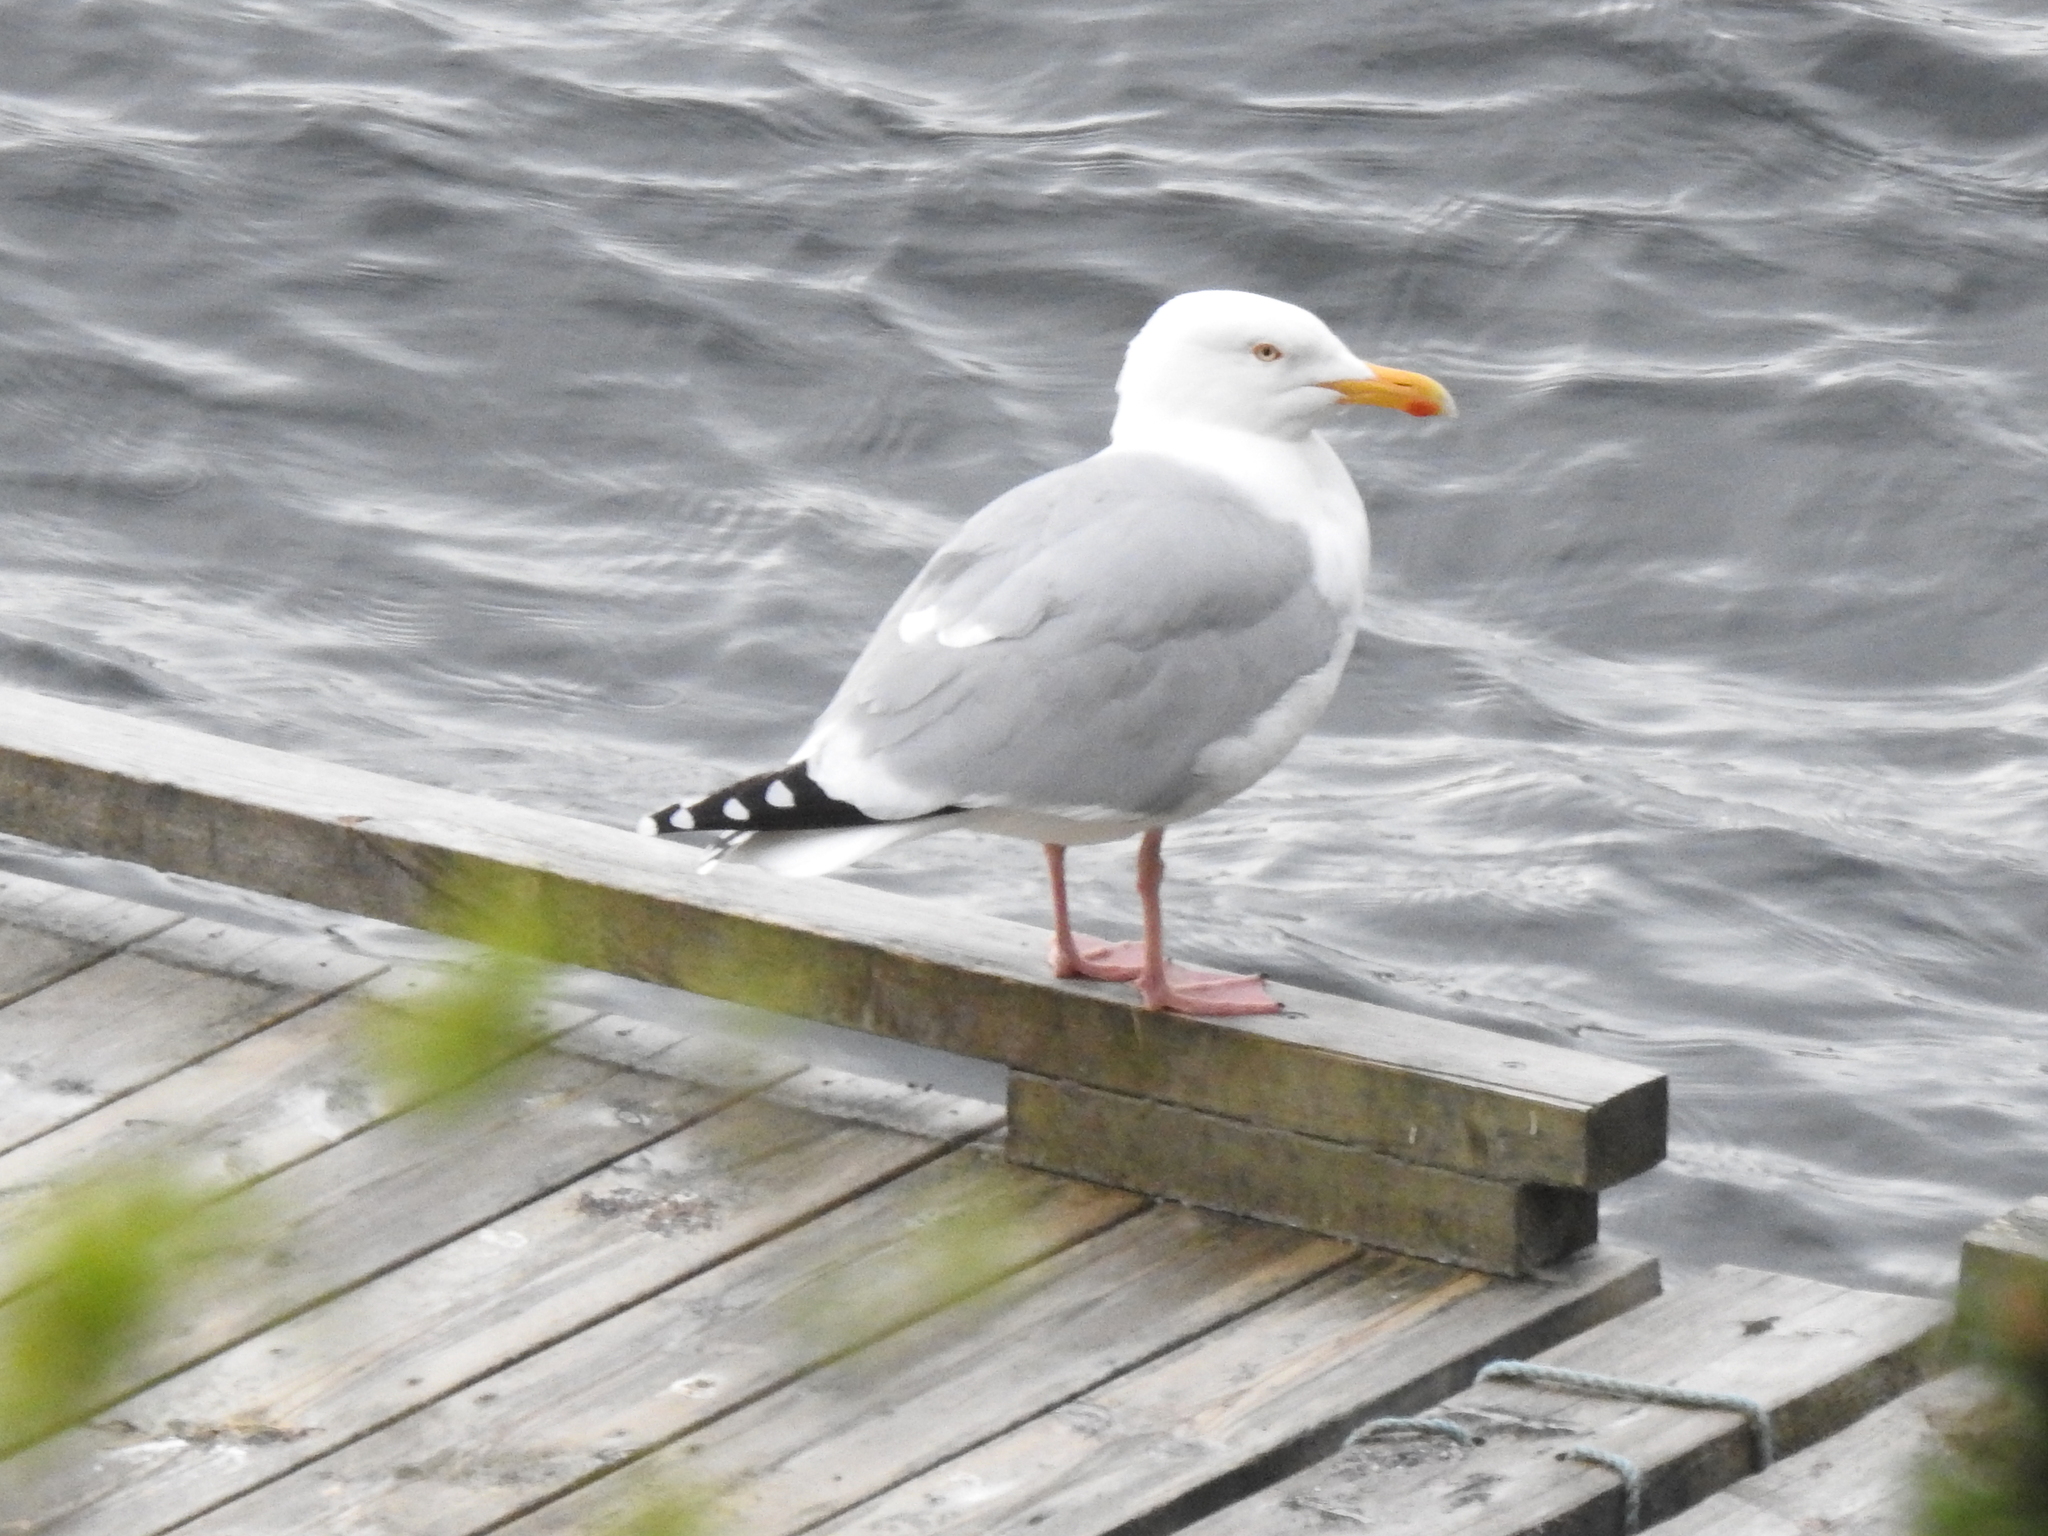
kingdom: Animalia
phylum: Chordata
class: Aves
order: Charadriiformes
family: Laridae
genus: Larus
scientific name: Larus argentatus
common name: Herring gull
